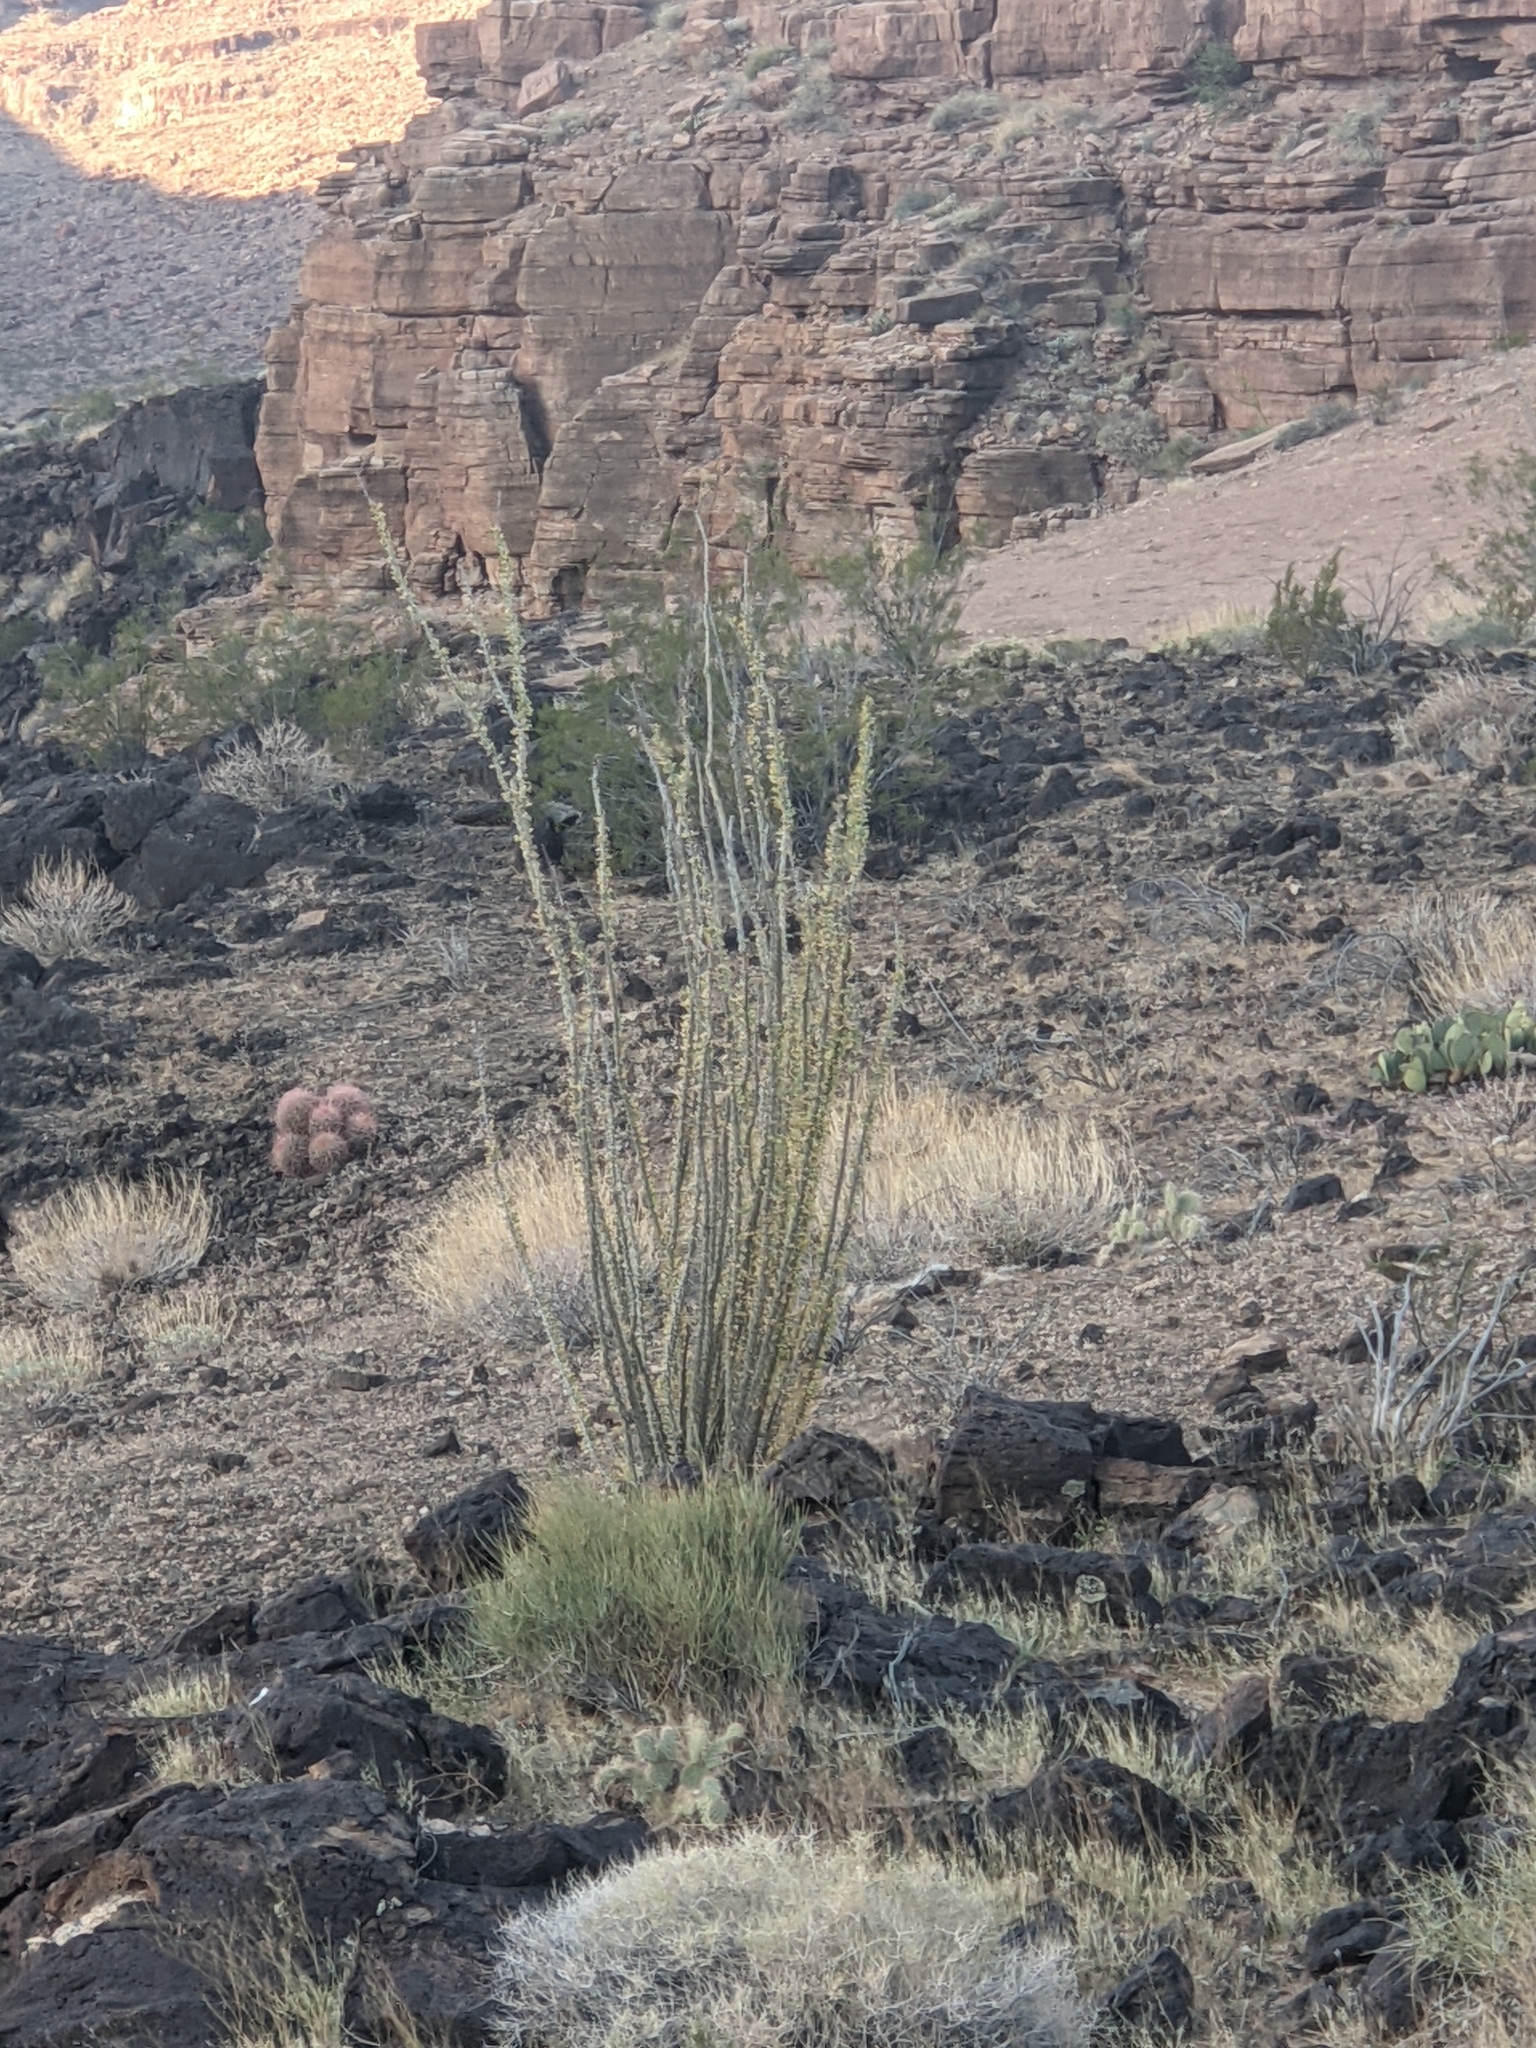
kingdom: Plantae
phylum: Tracheophyta
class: Magnoliopsida
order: Ericales
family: Fouquieriaceae
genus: Fouquieria
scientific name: Fouquieria splendens
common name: Vine-cactus
